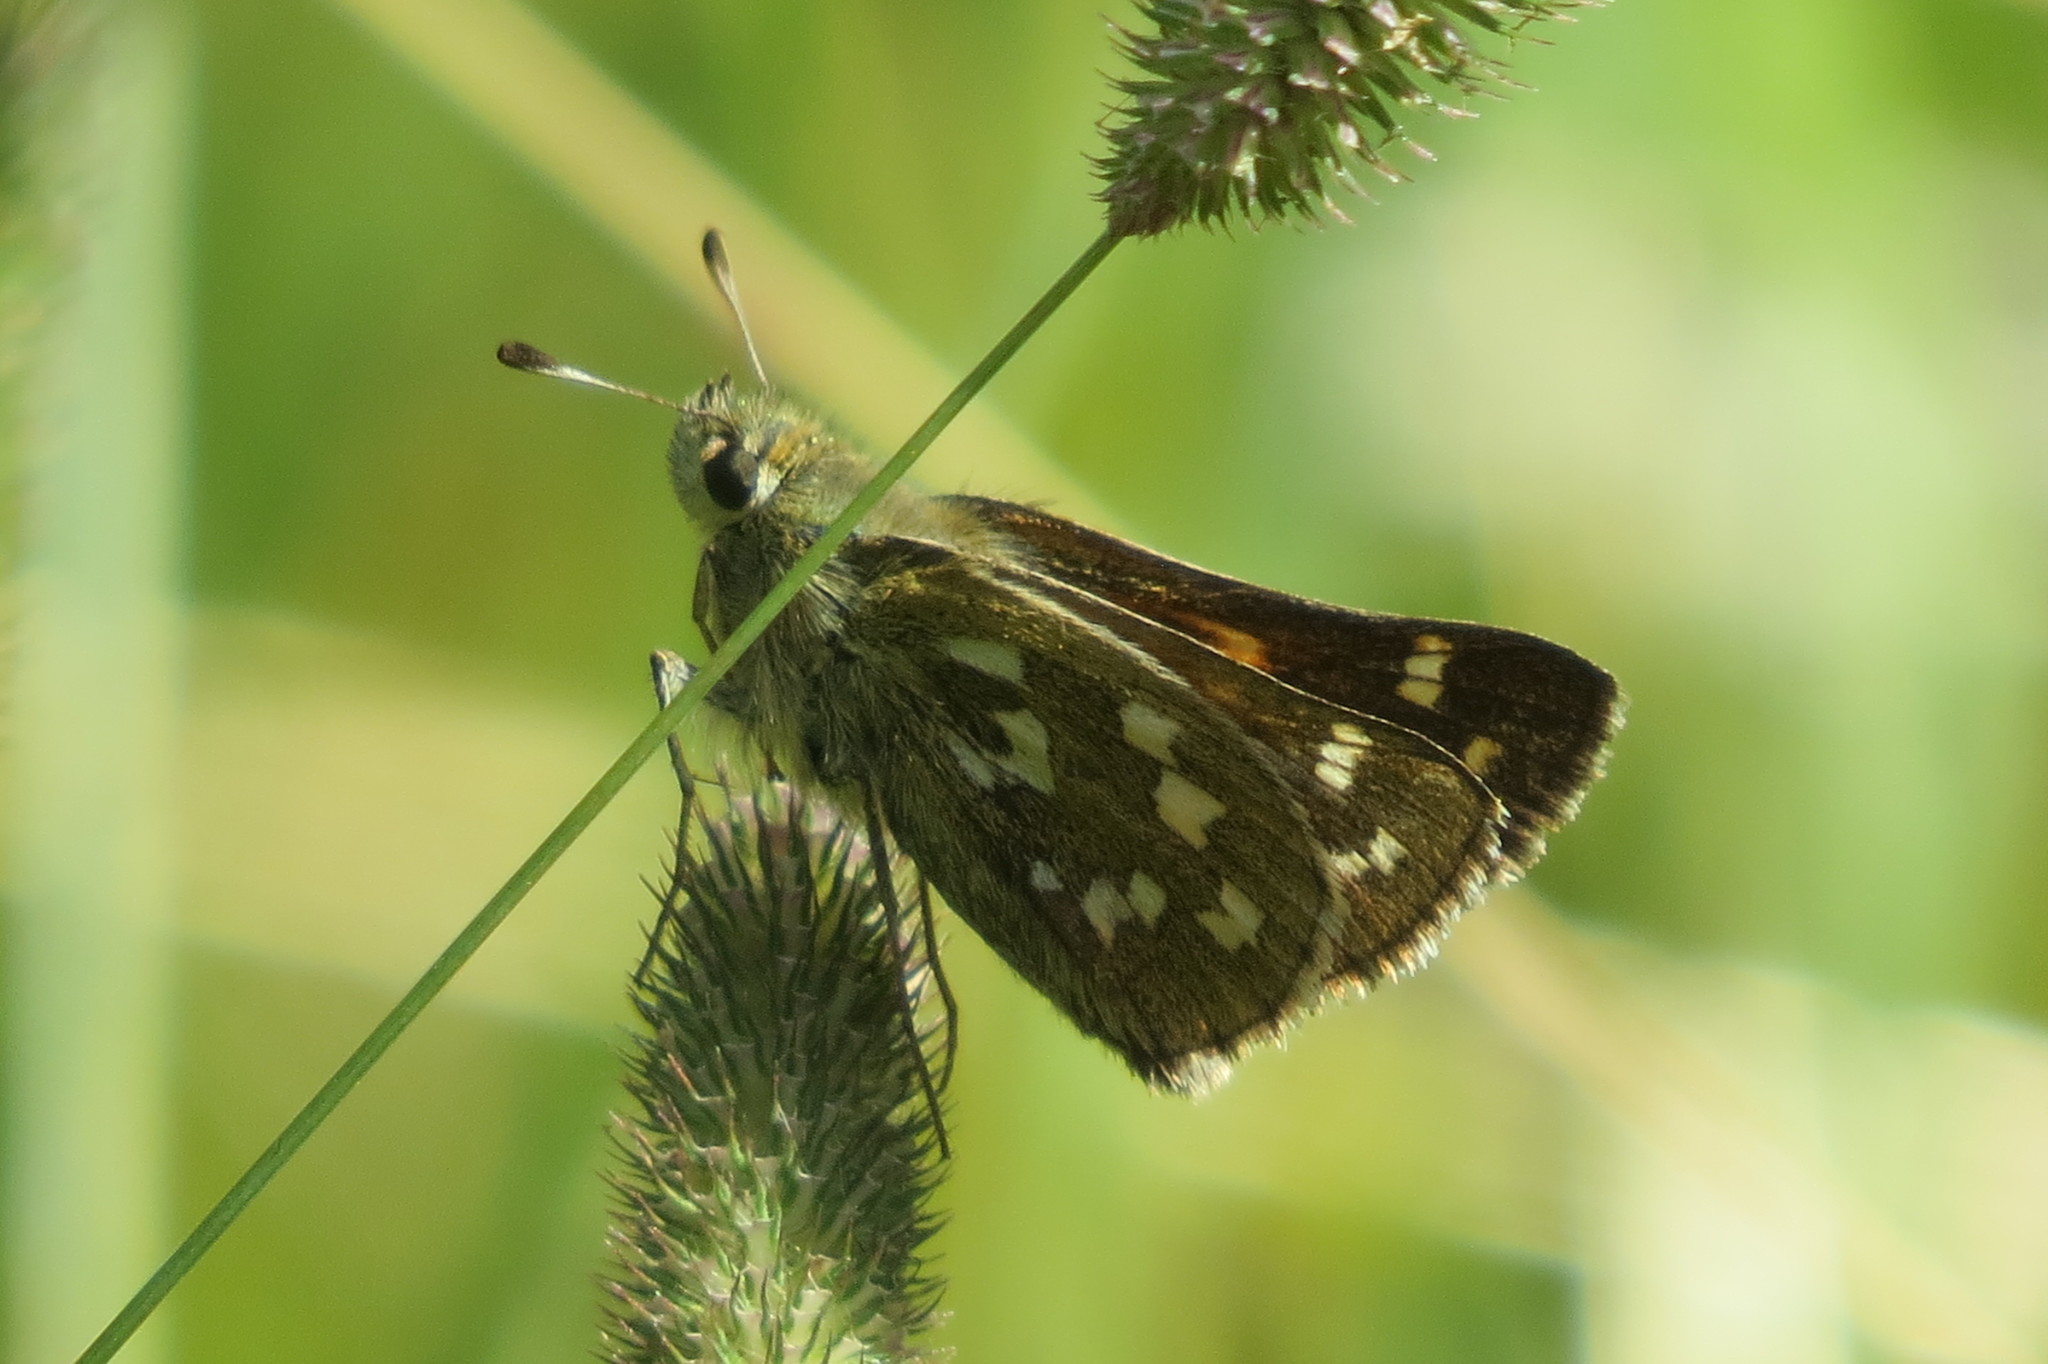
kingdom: Animalia
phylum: Arthropoda
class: Insecta
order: Lepidoptera
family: Hesperiidae
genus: Hesperia
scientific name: Hesperia comma
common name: Common branded skipper
